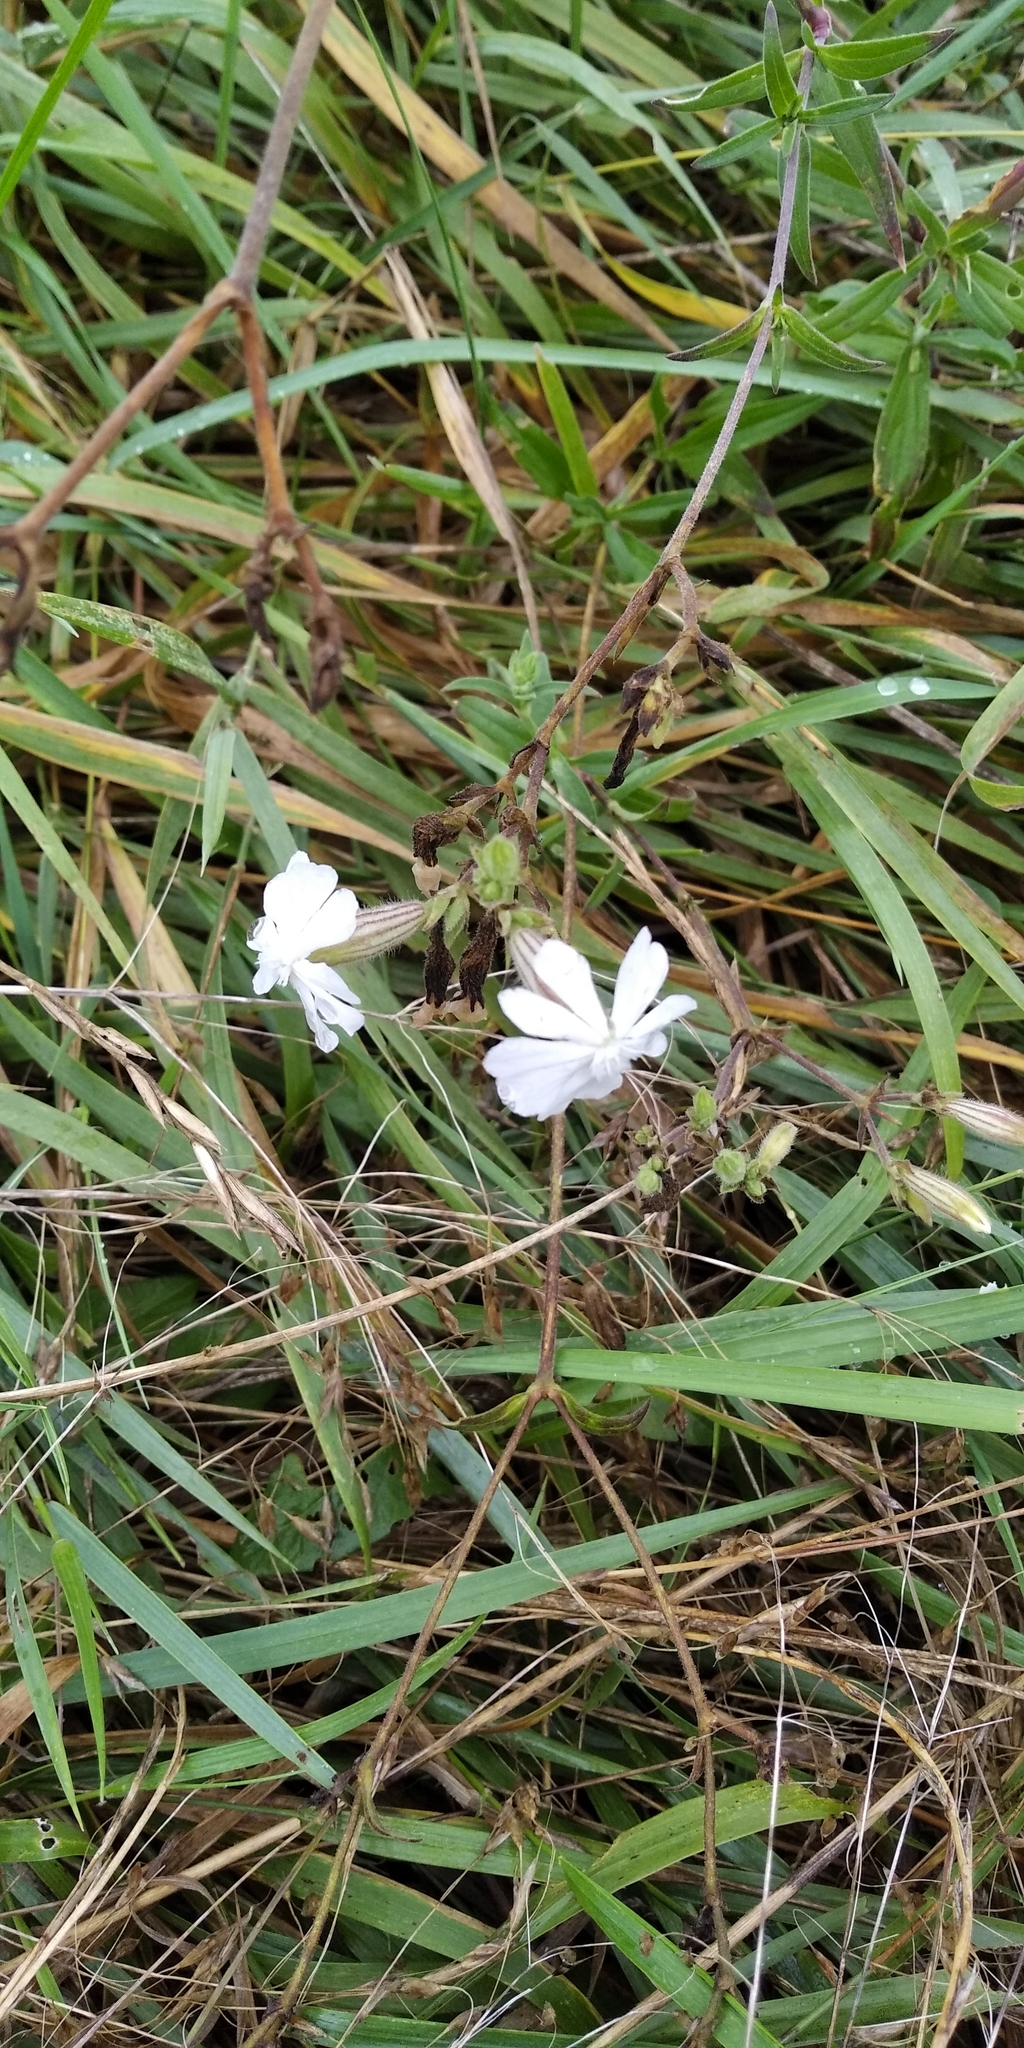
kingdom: Plantae
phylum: Tracheophyta
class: Magnoliopsida
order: Caryophyllales
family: Caryophyllaceae
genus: Silene
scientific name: Silene latifolia
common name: White campion
